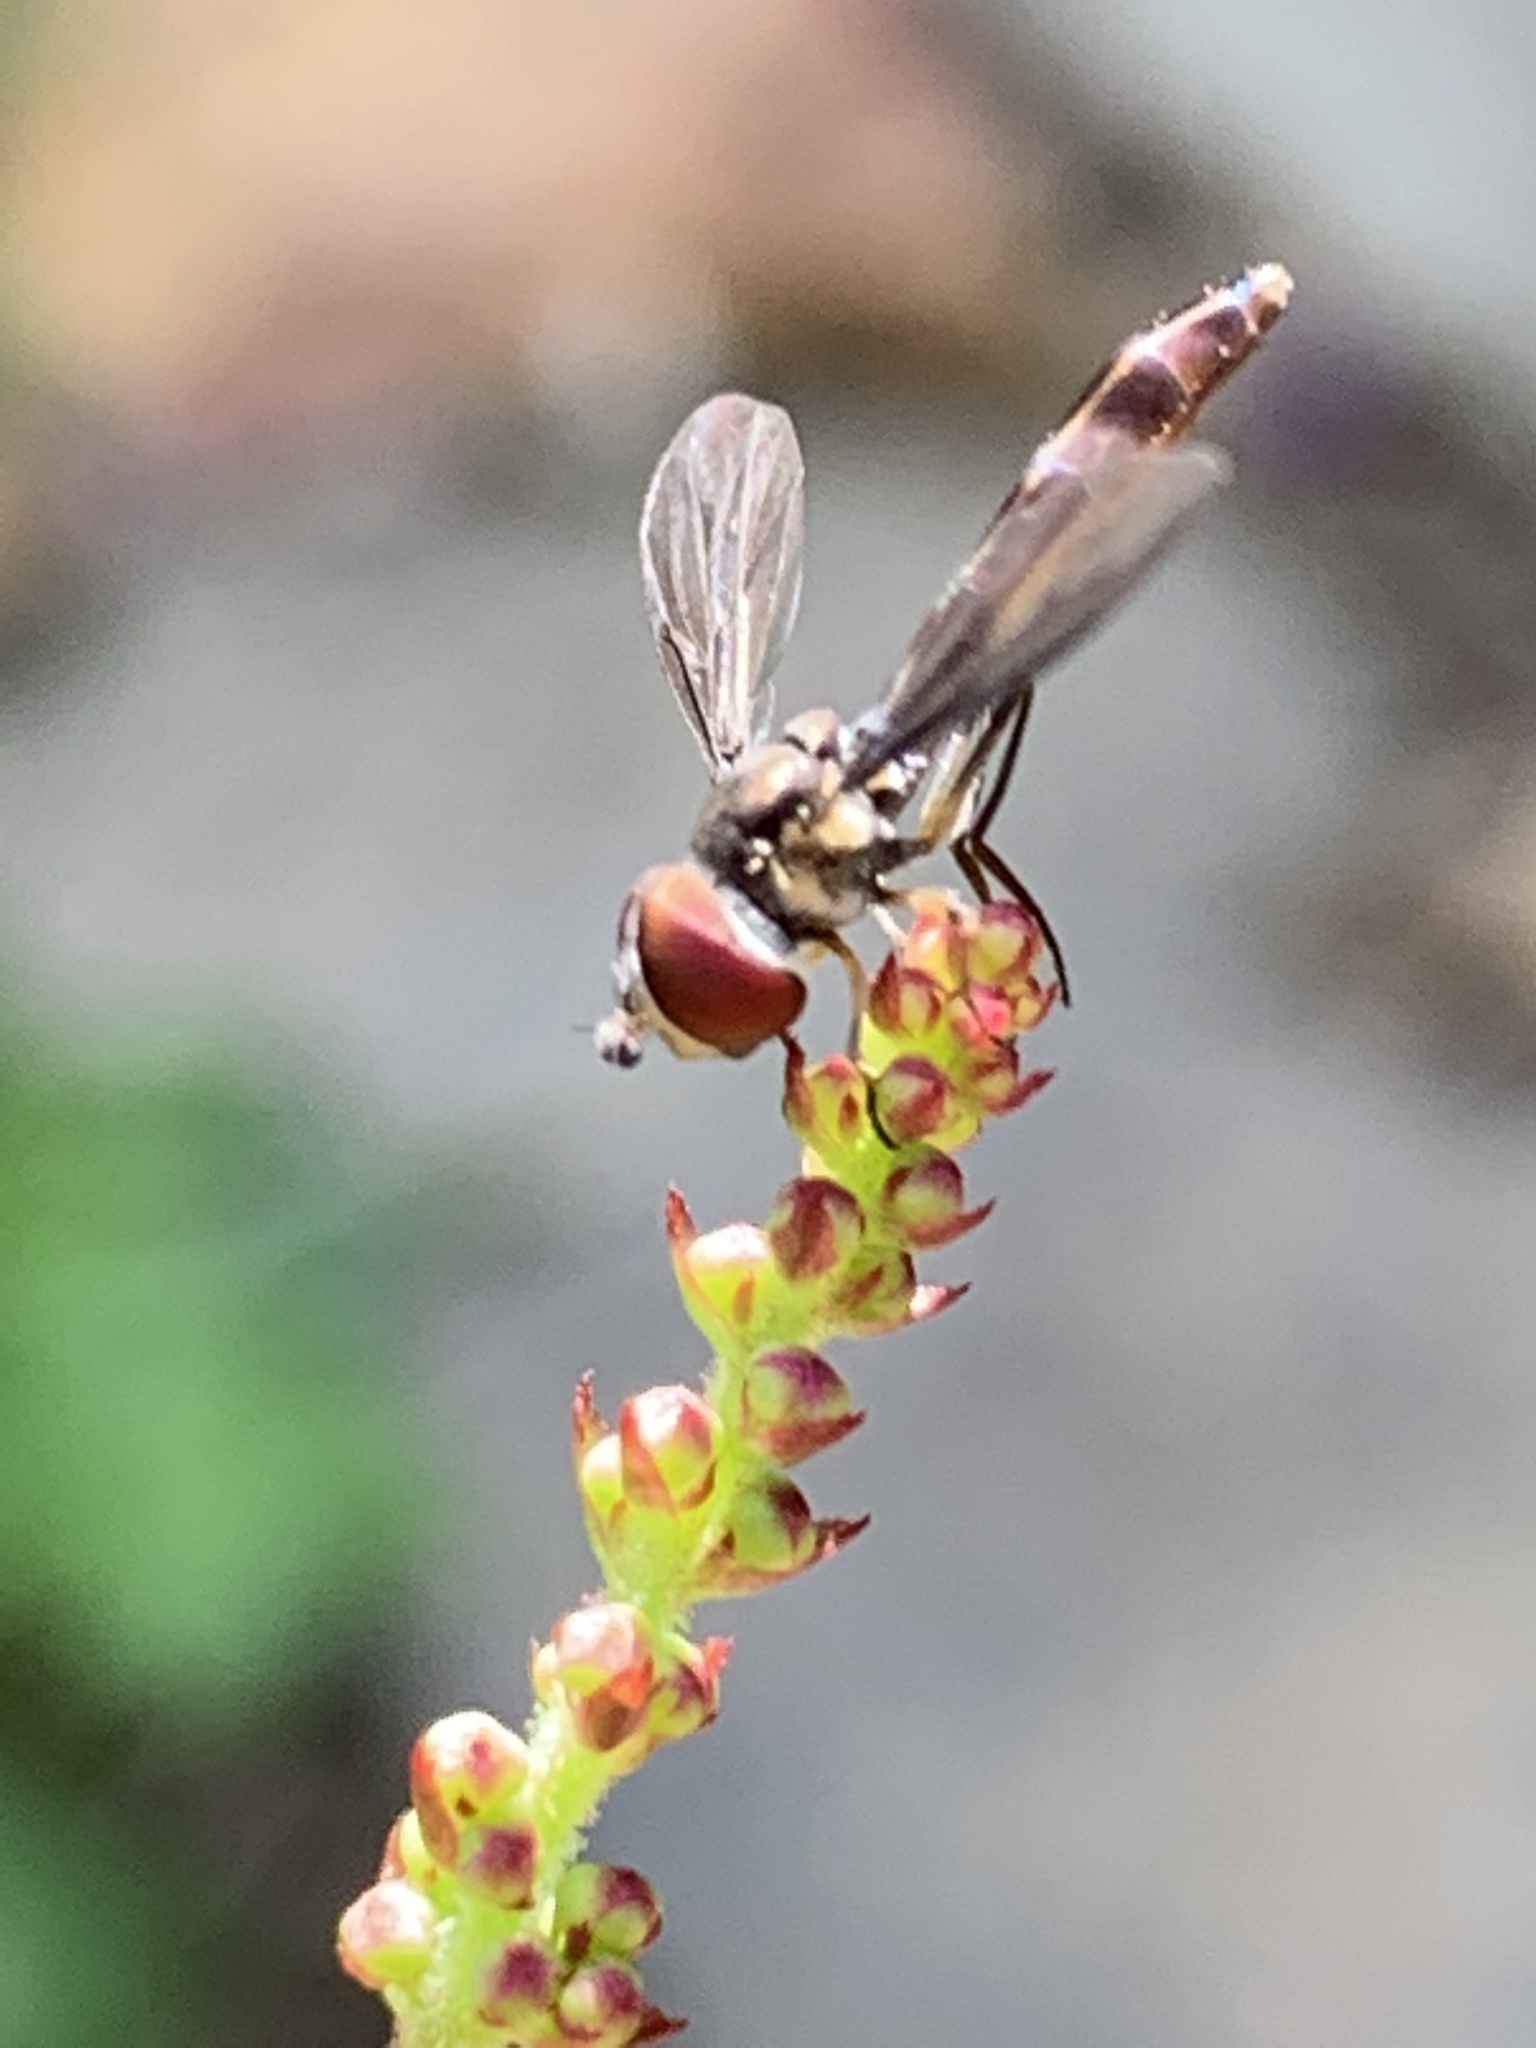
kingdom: Animalia
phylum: Arthropoda
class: Insecta
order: Diptera
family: Syrphidae
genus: Dioprosopa
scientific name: Dioprosopa clavatus
